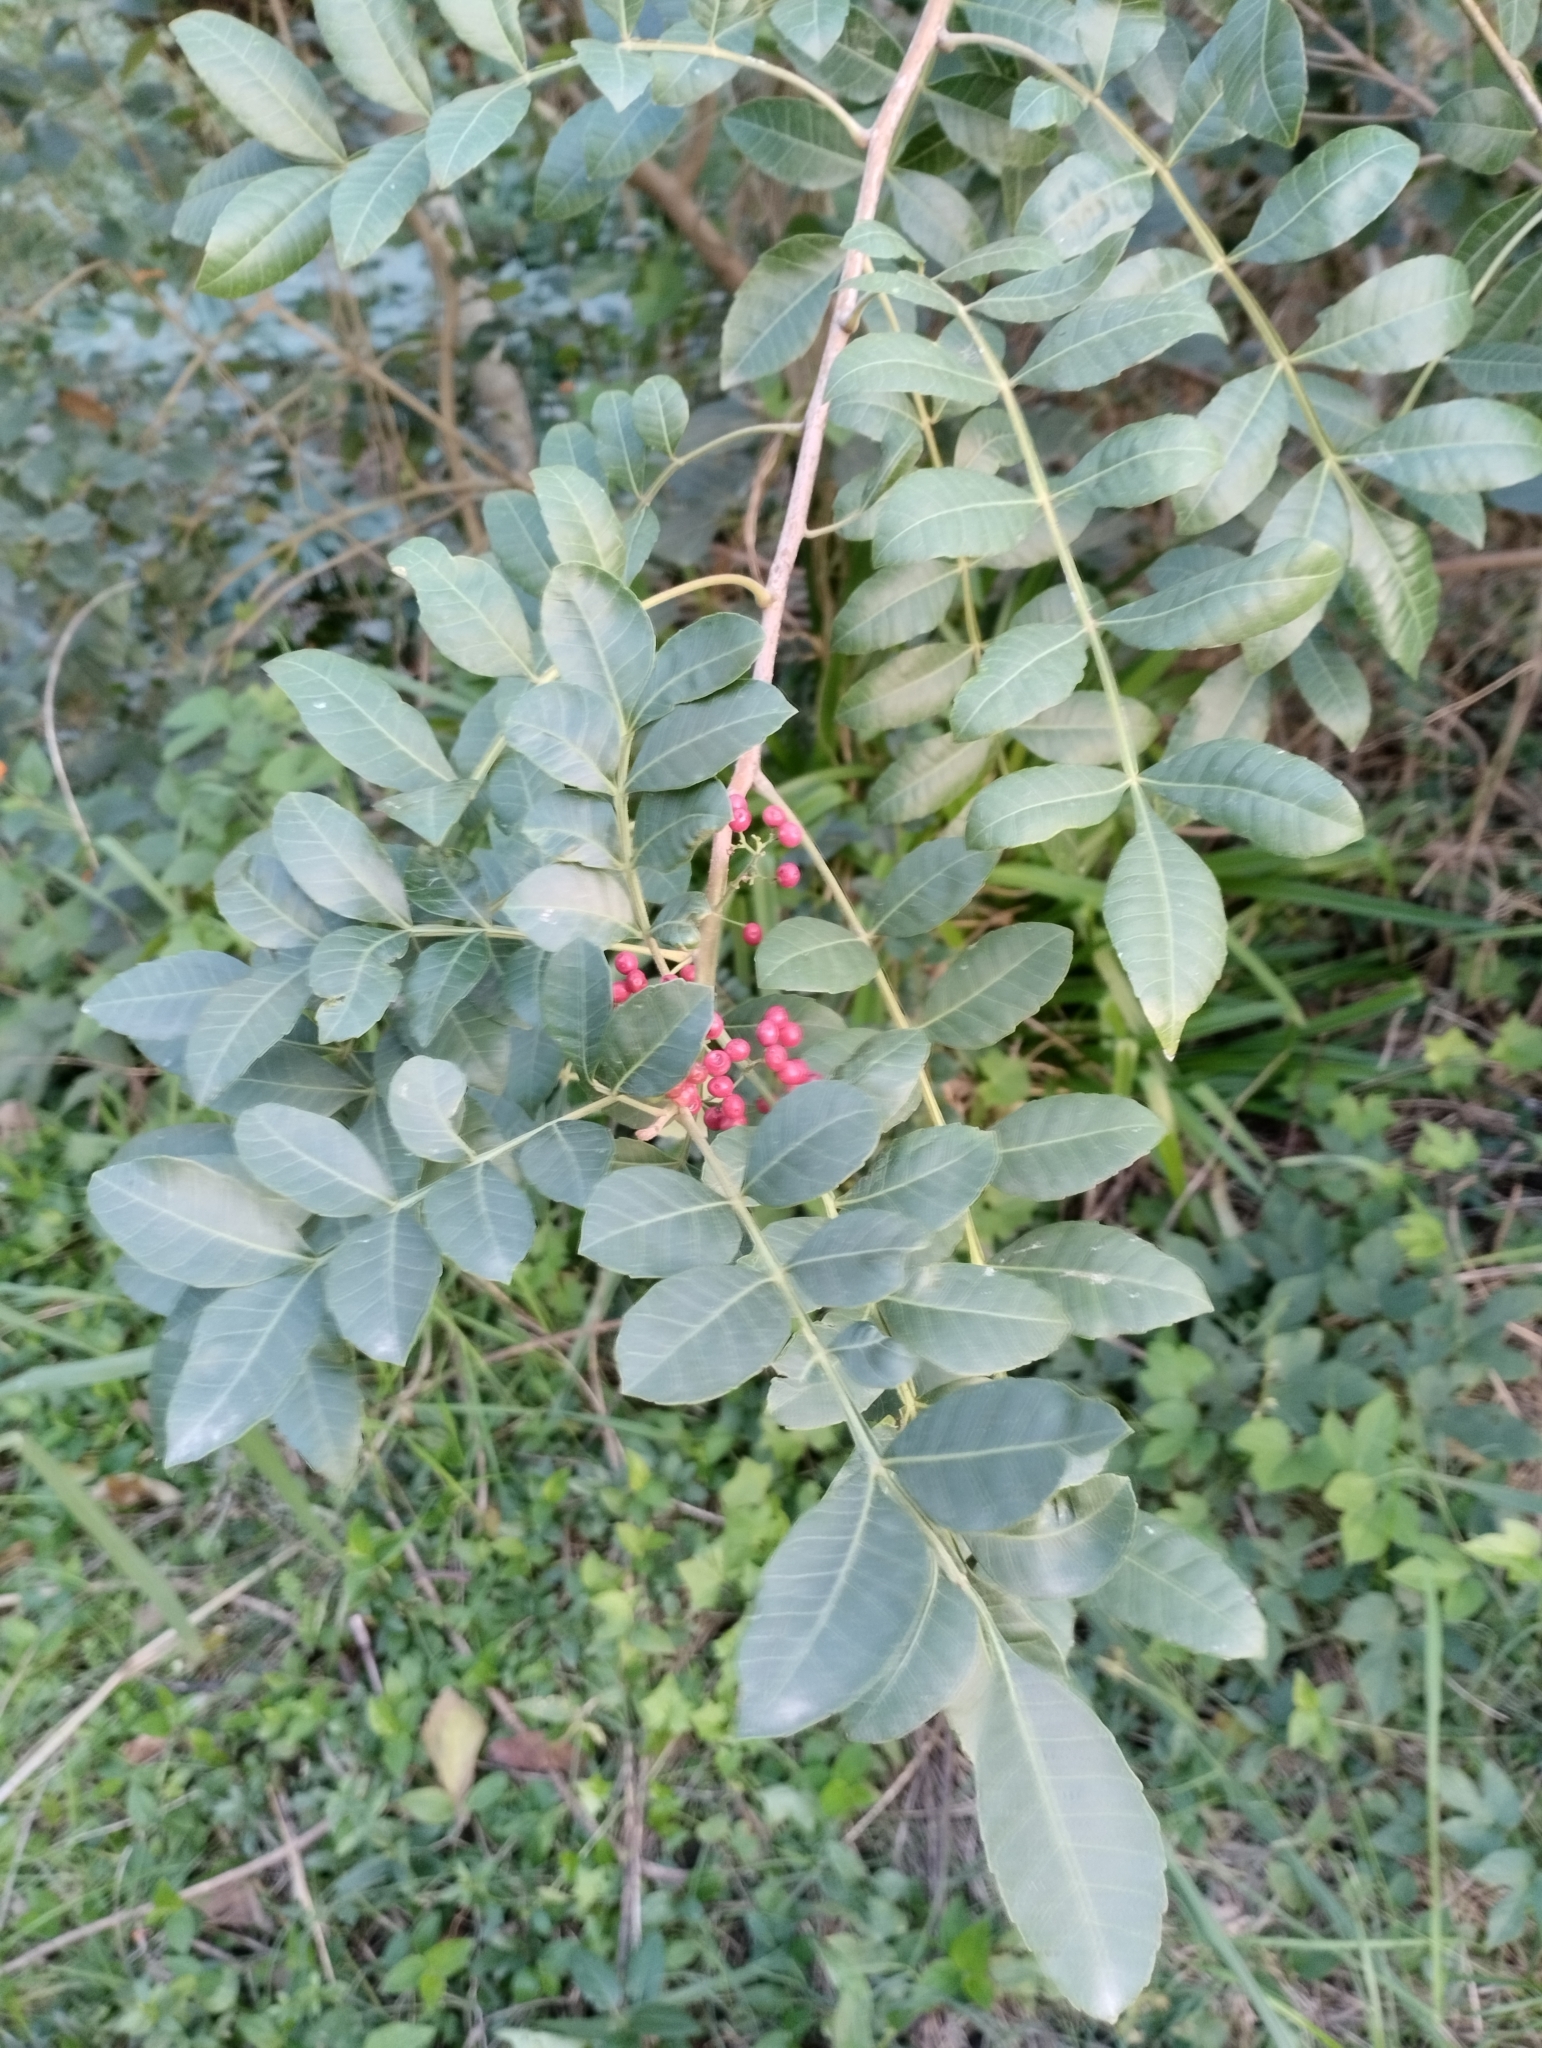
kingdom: Plantae
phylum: Tracheophyta
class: Magnoliopsida
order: Sapindales
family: Anacardiaceae
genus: Schinus
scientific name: Schinus terebinthifolia
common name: Brazilian peppertree
